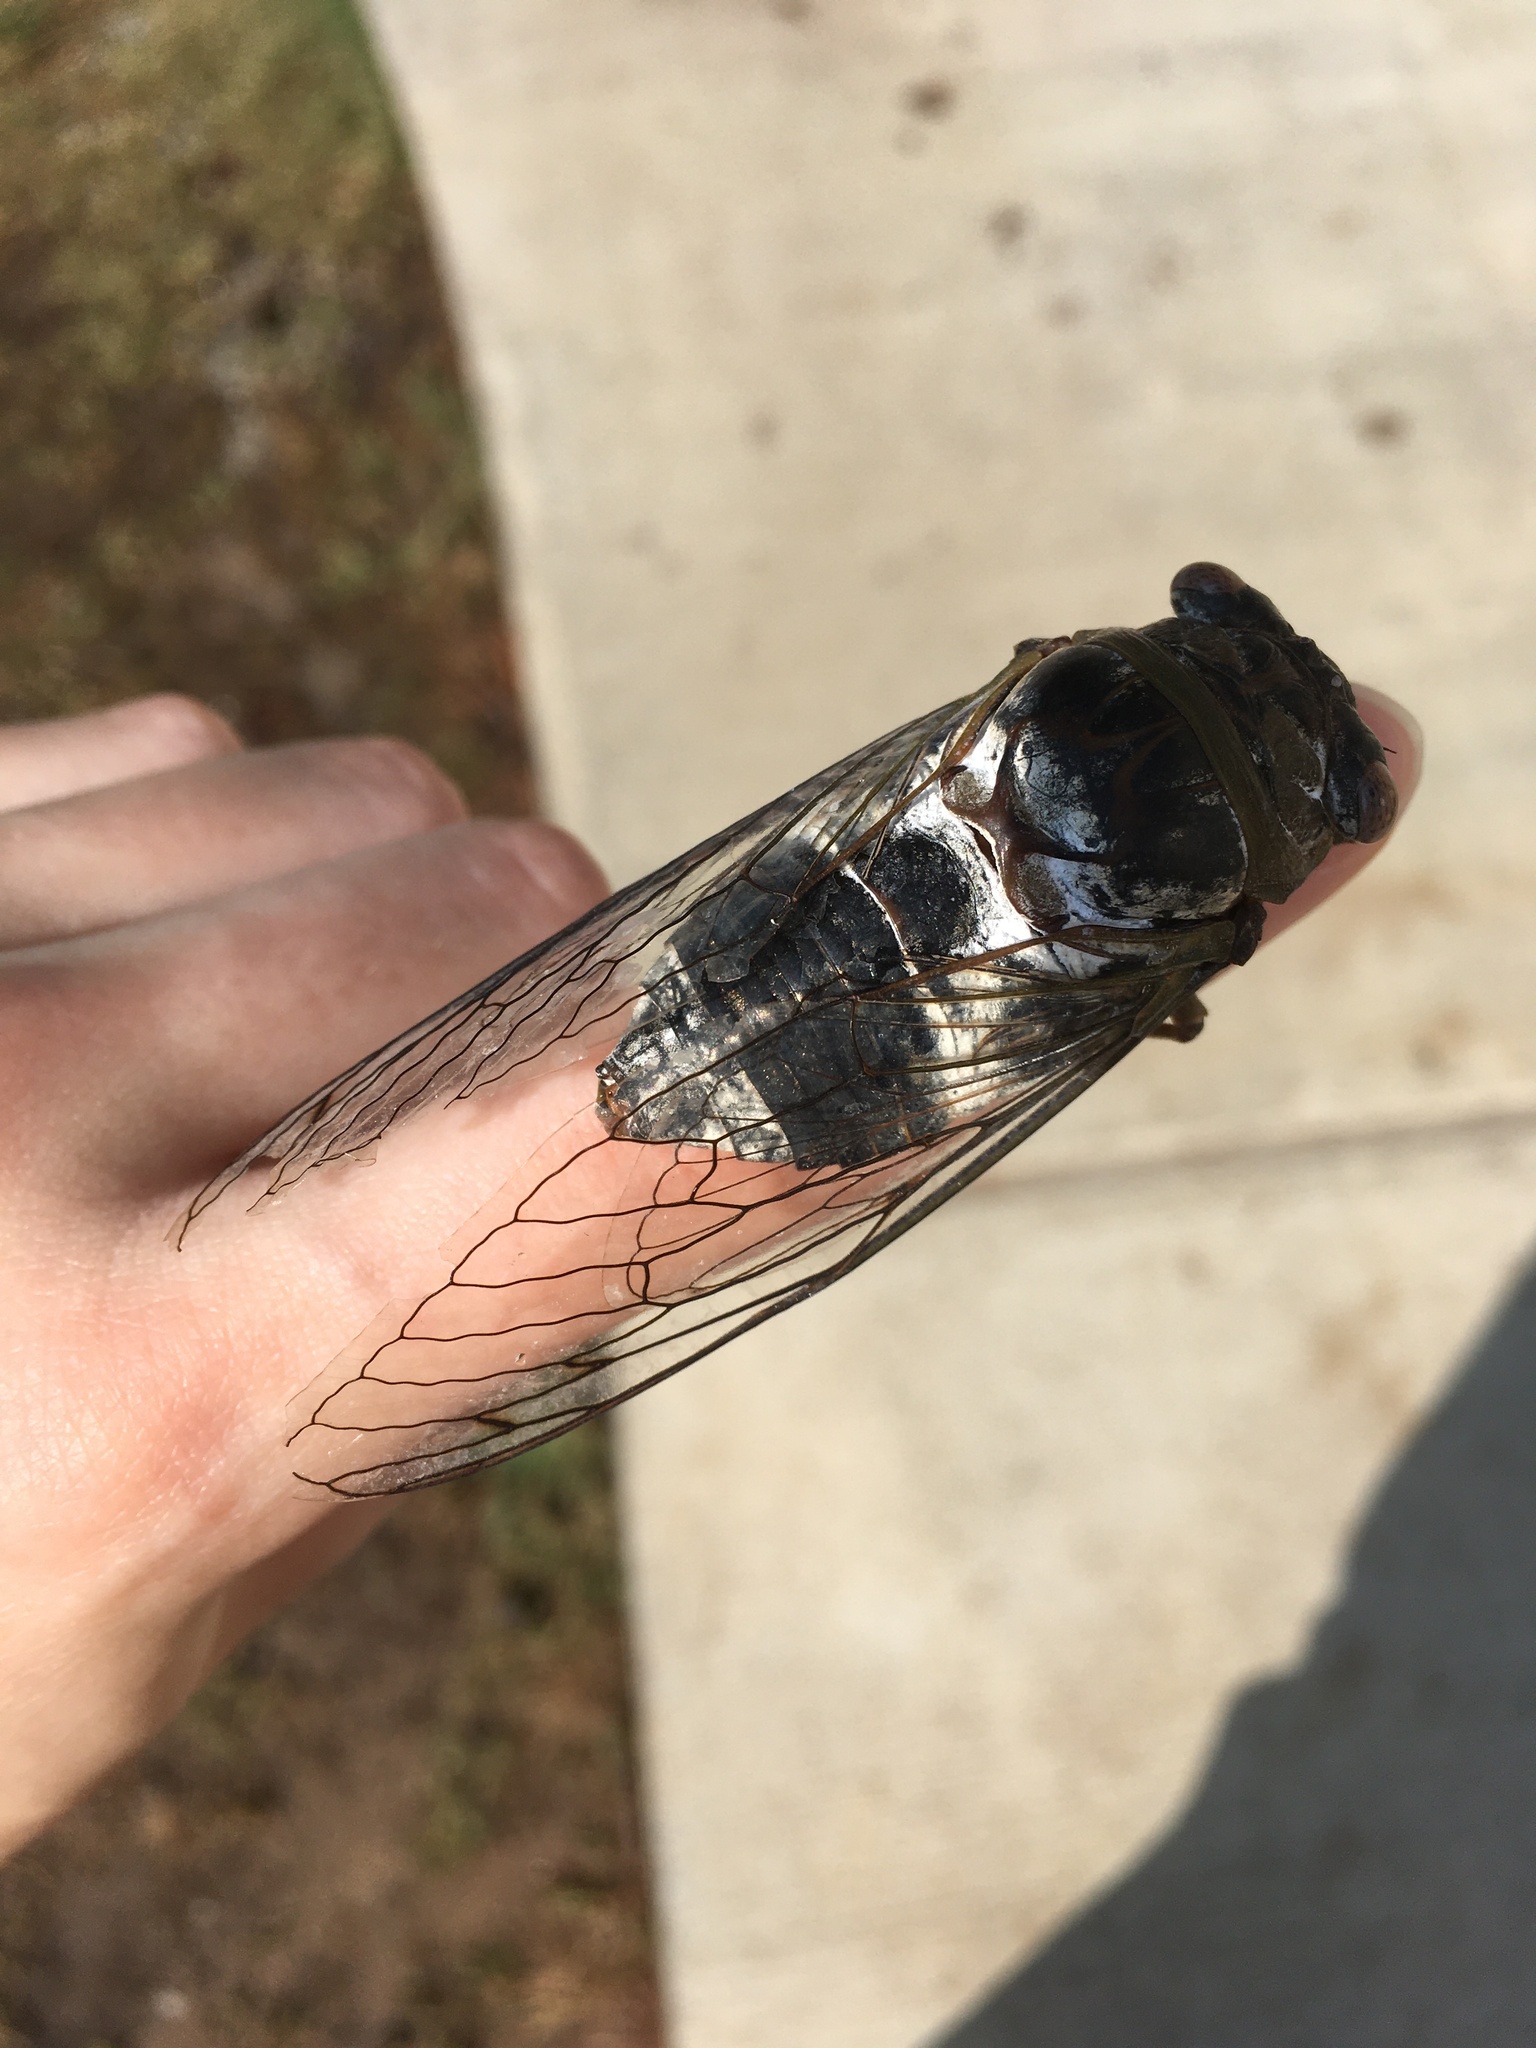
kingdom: Animalia
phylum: Arthropoda
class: Insecta
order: Hemiptera
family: Cicadidae
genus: Diceroprocta
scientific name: Diceroprocta grossa
